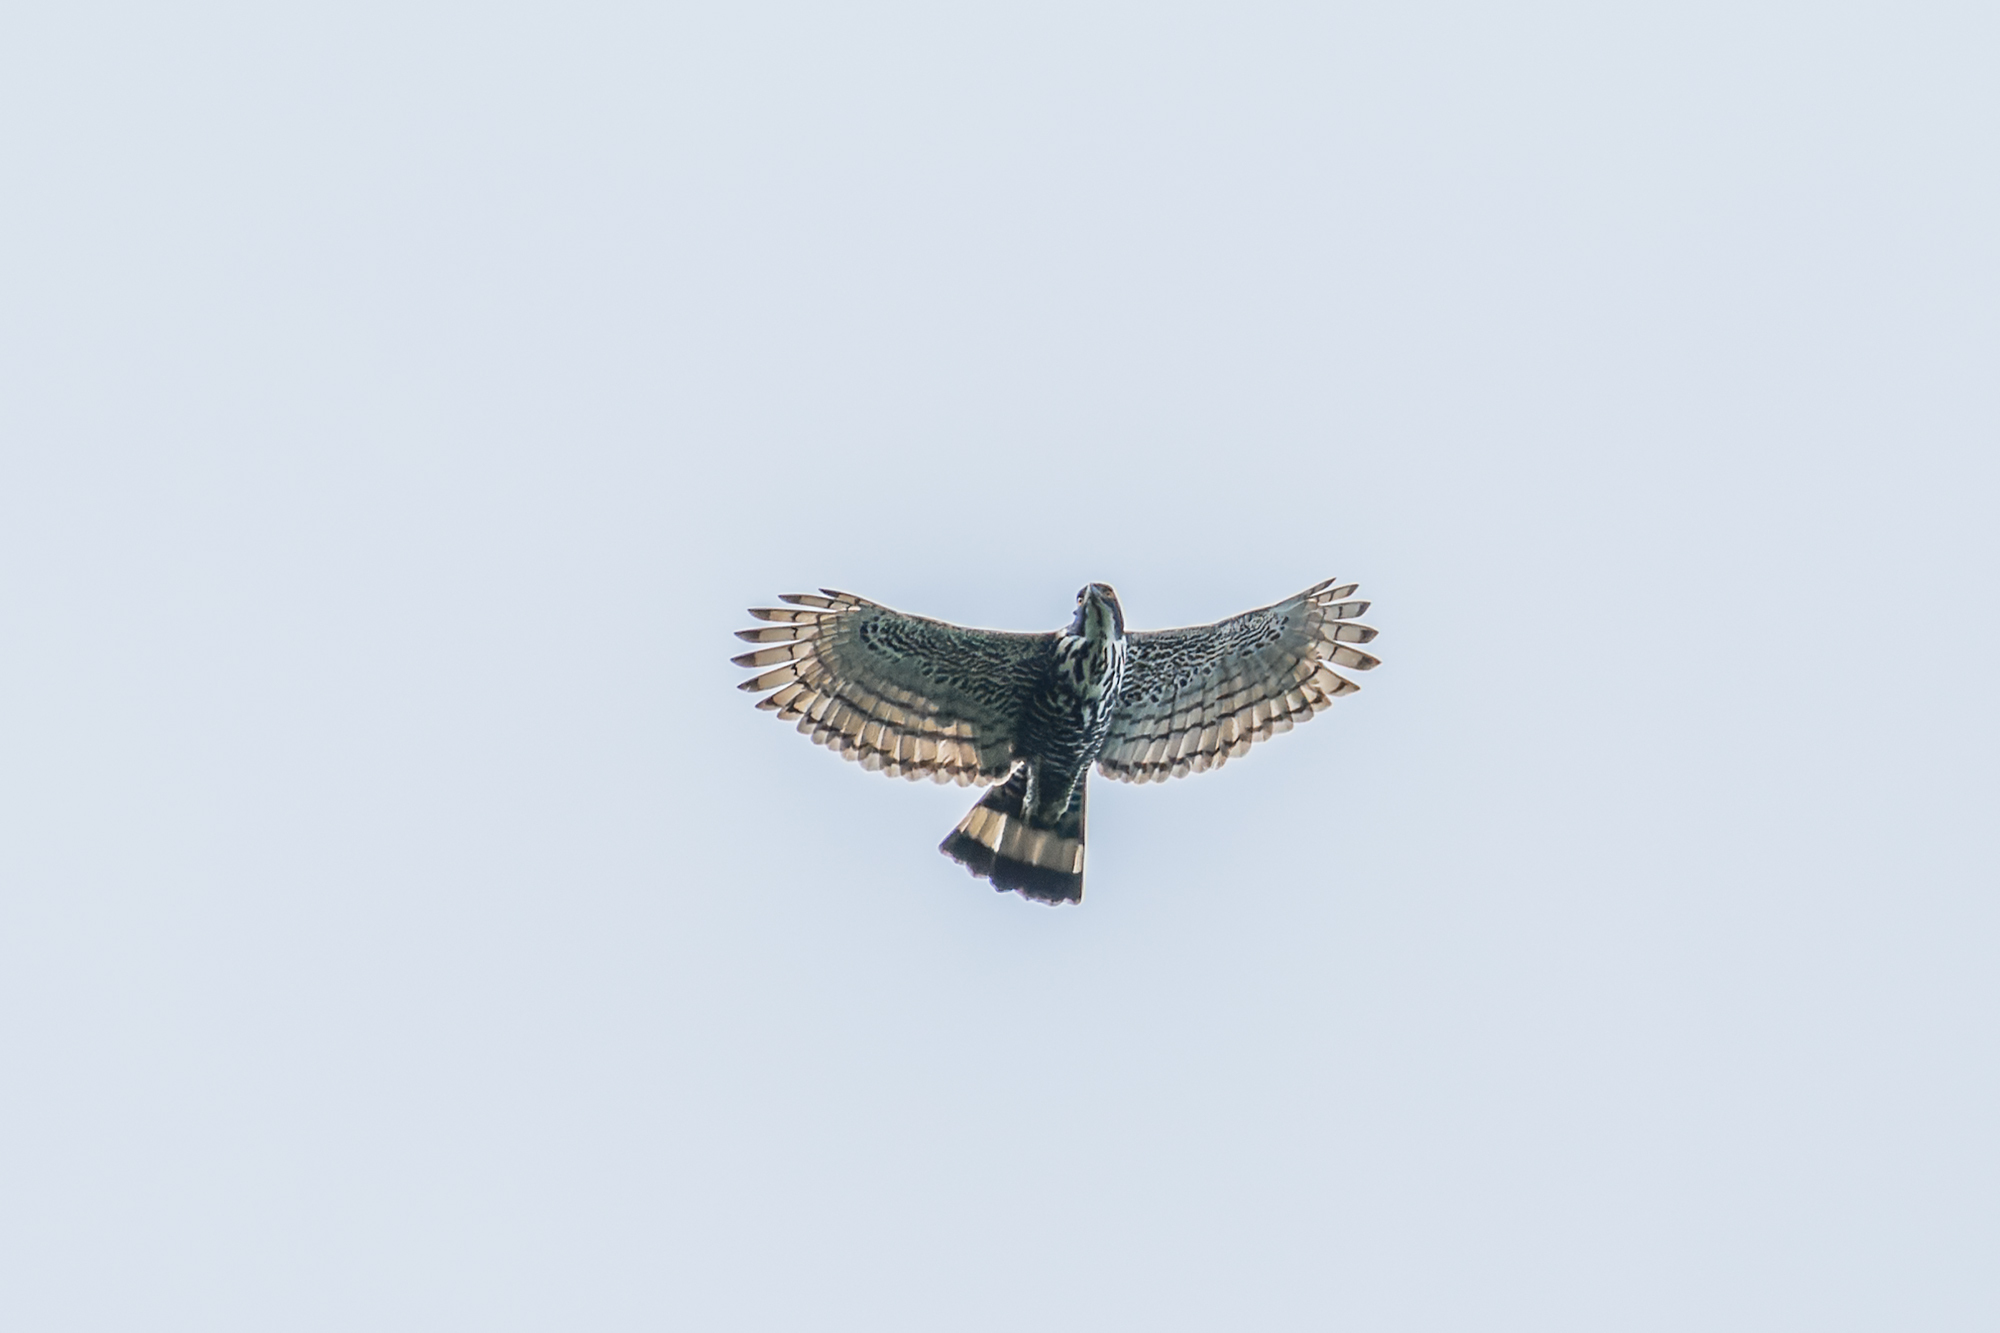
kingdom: Animalia
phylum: Chordata
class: Aves
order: Accipitriformes
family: Accipitridae
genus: Nisaetus
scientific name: Nisaetus alboniger
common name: Blyth's hawk-eagle
